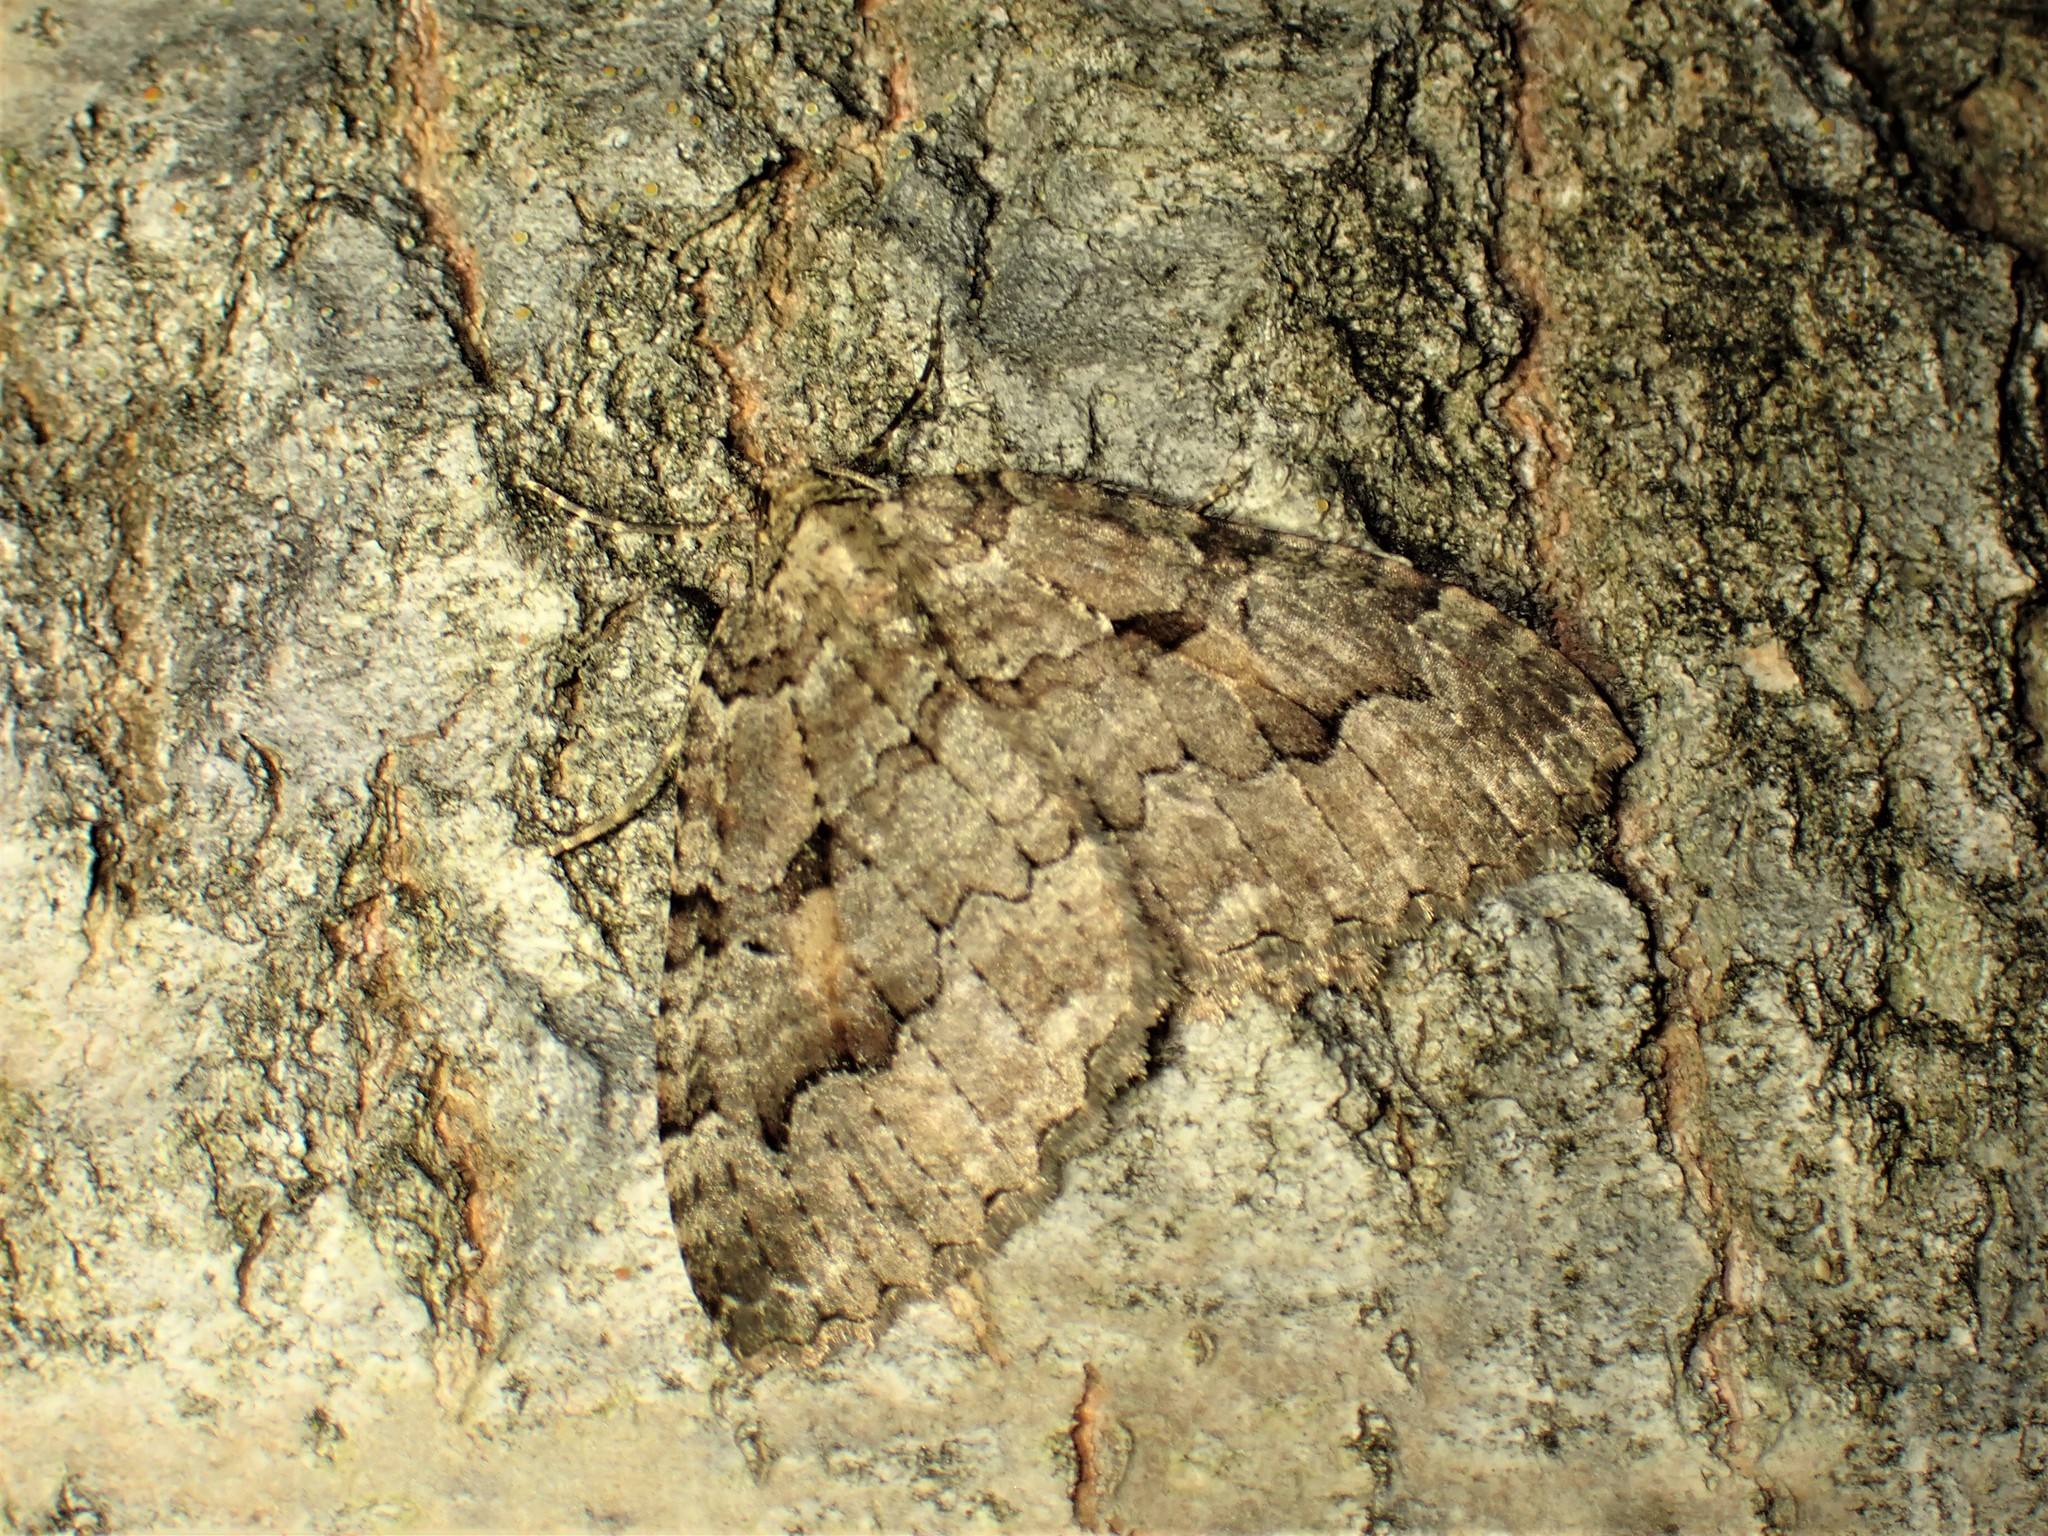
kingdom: Animalia
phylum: Arthropoda
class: Insecta
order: Lepidoptera
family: Geometridae
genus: Triphosa
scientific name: Triphosa haesitata
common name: Tissue moth
